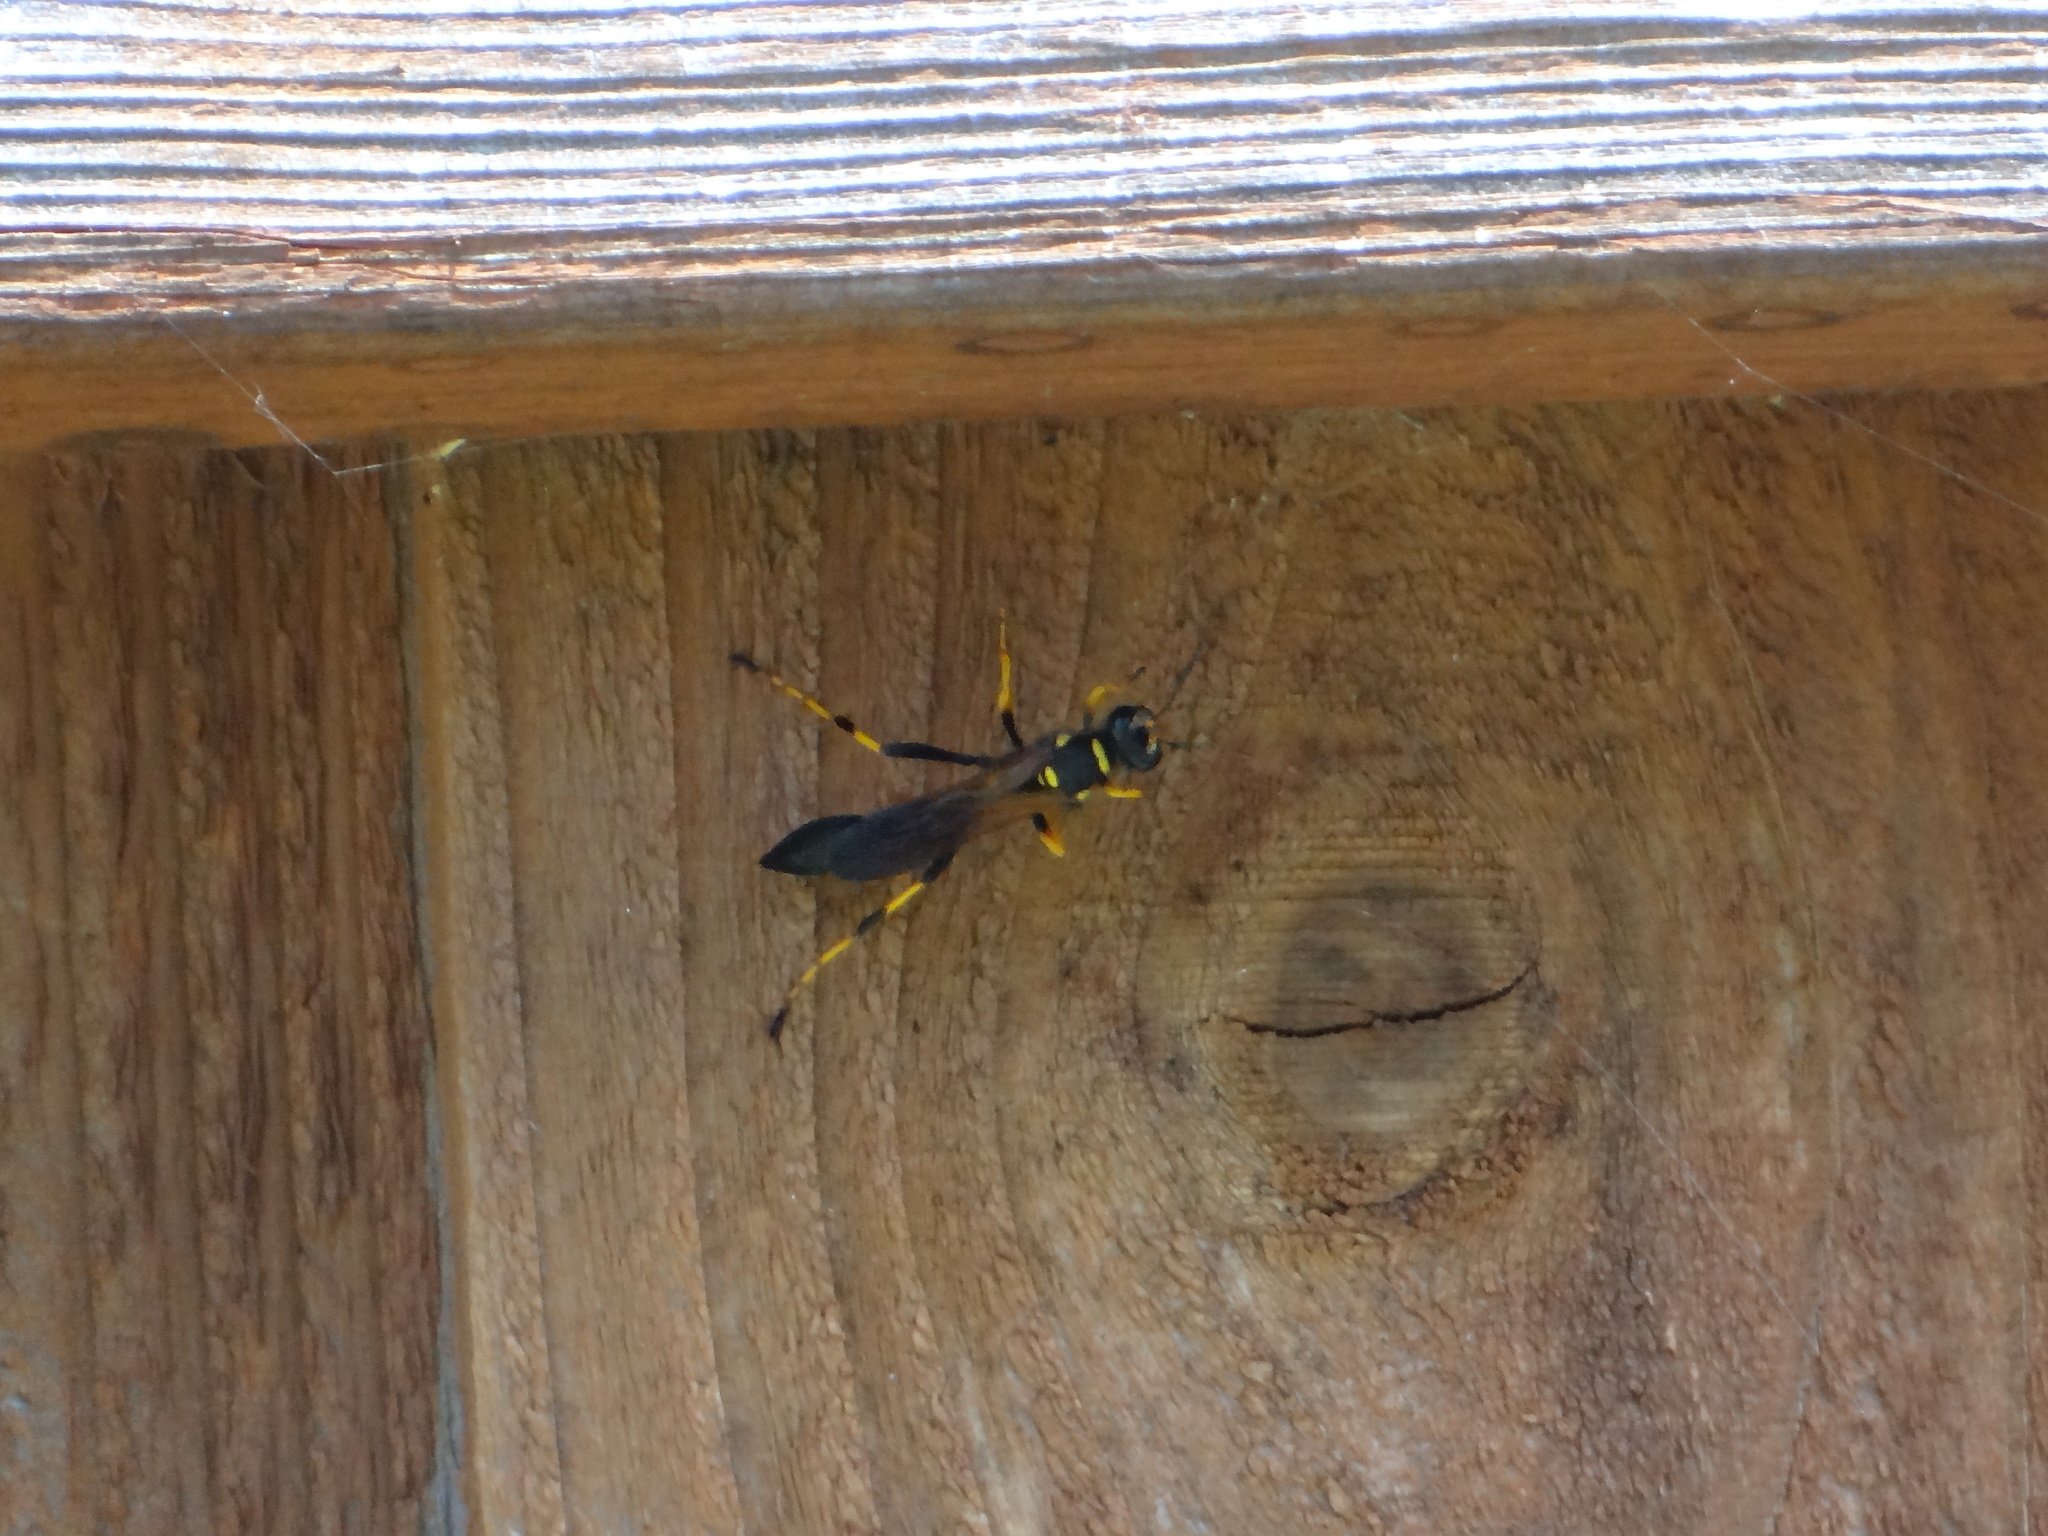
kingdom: Animalia
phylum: Arthropoda
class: Insecta
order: Hymenoptera
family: Sphecidae
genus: Sceliphron
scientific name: Sceliphron caementarium
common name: Mud dauber
